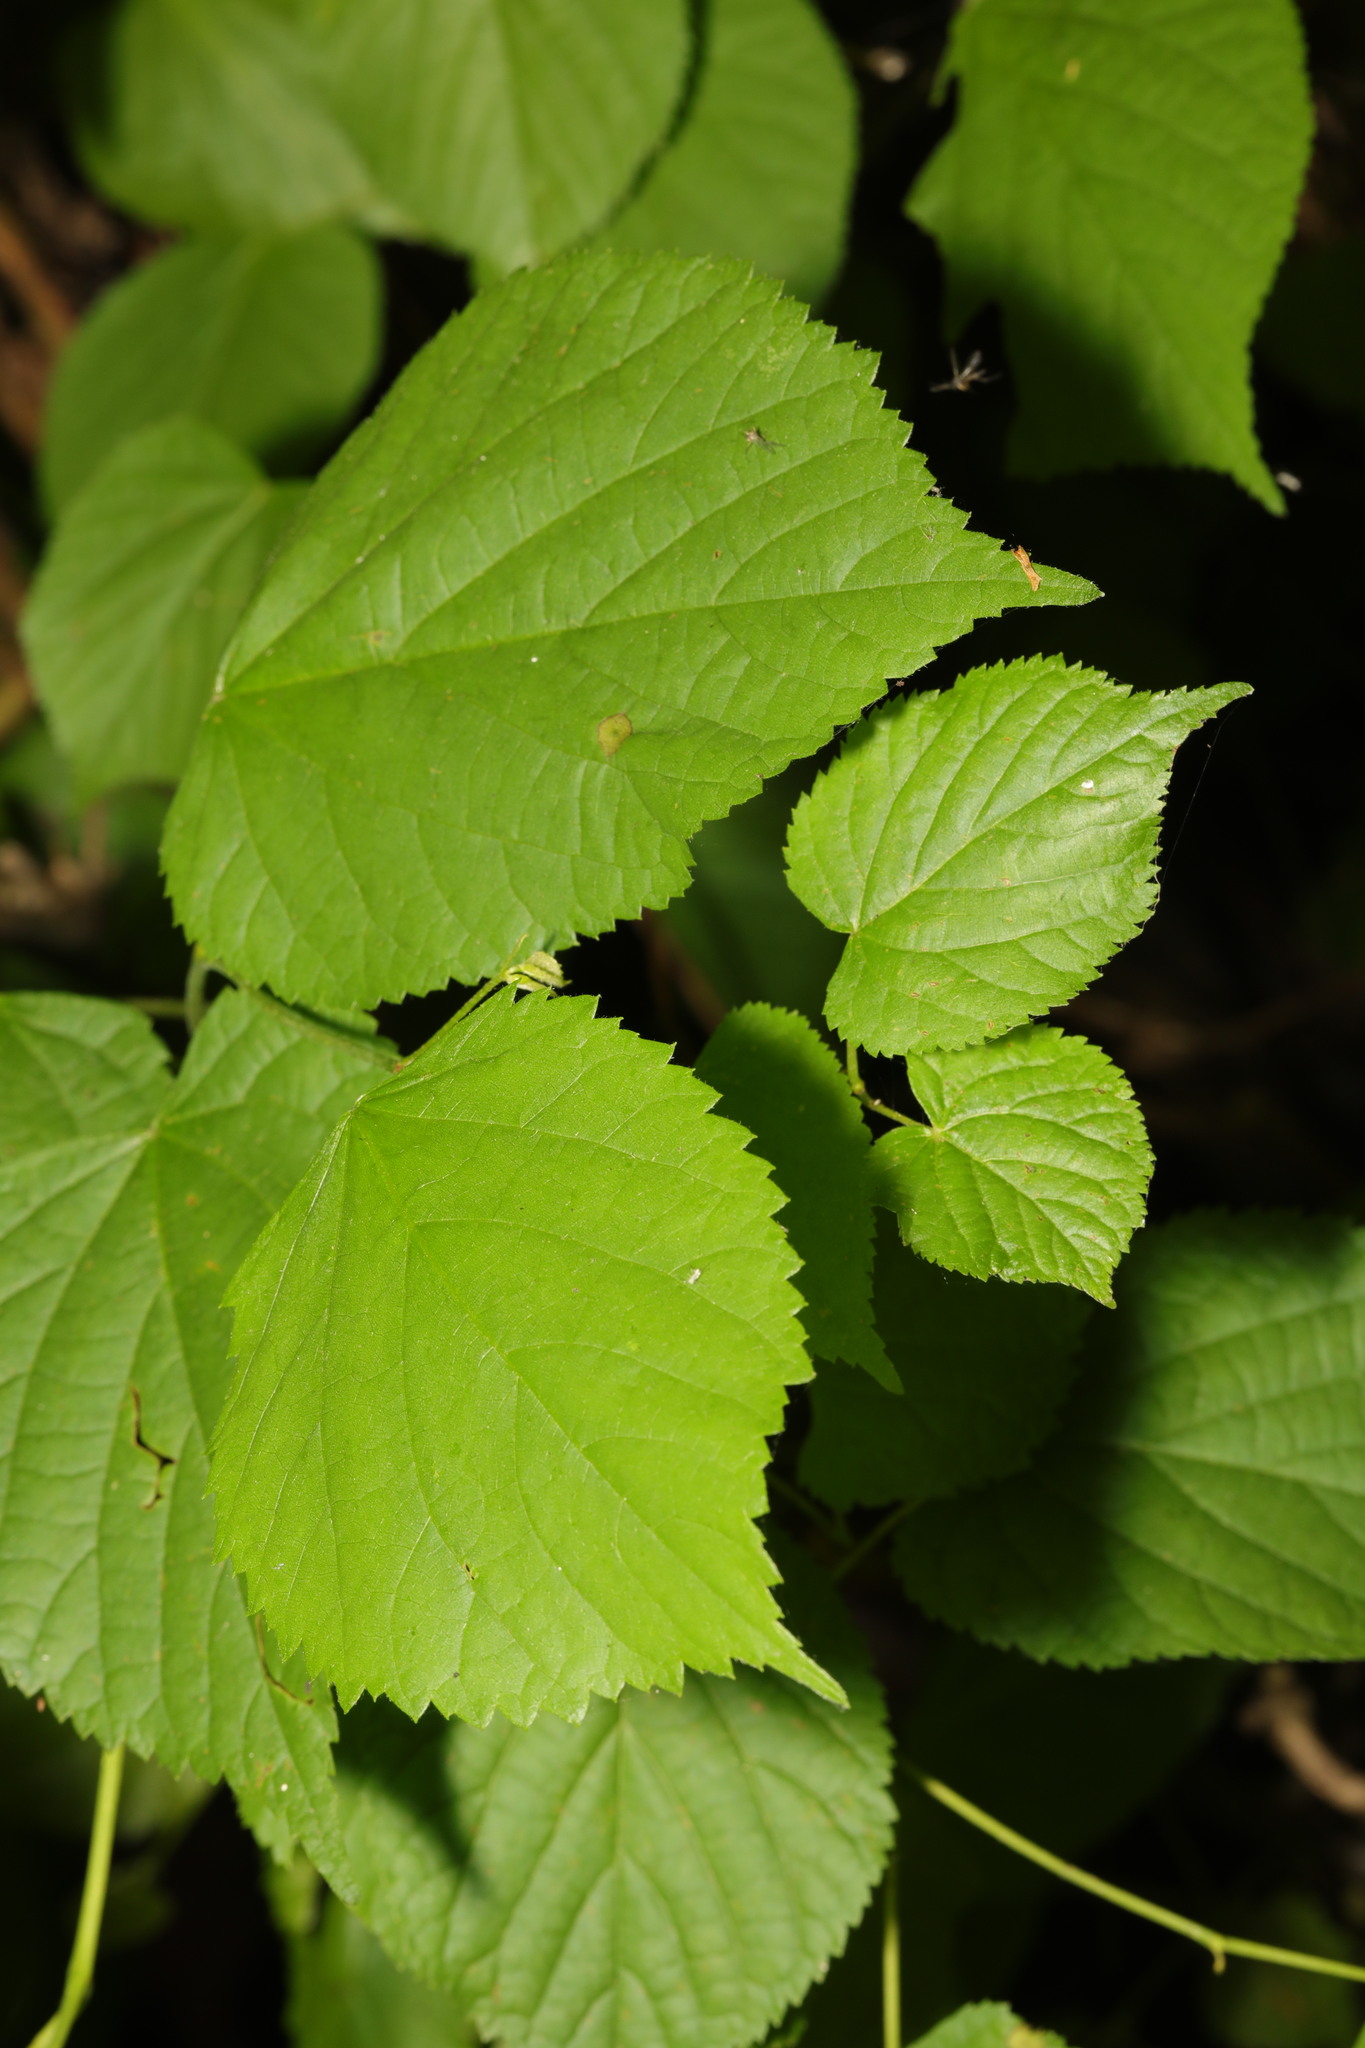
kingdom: Plantae
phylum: Tracheophyta
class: Magnoliopsida
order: Malvales
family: Malvaceae
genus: Tilia
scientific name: Tilia europaea
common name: European linden
